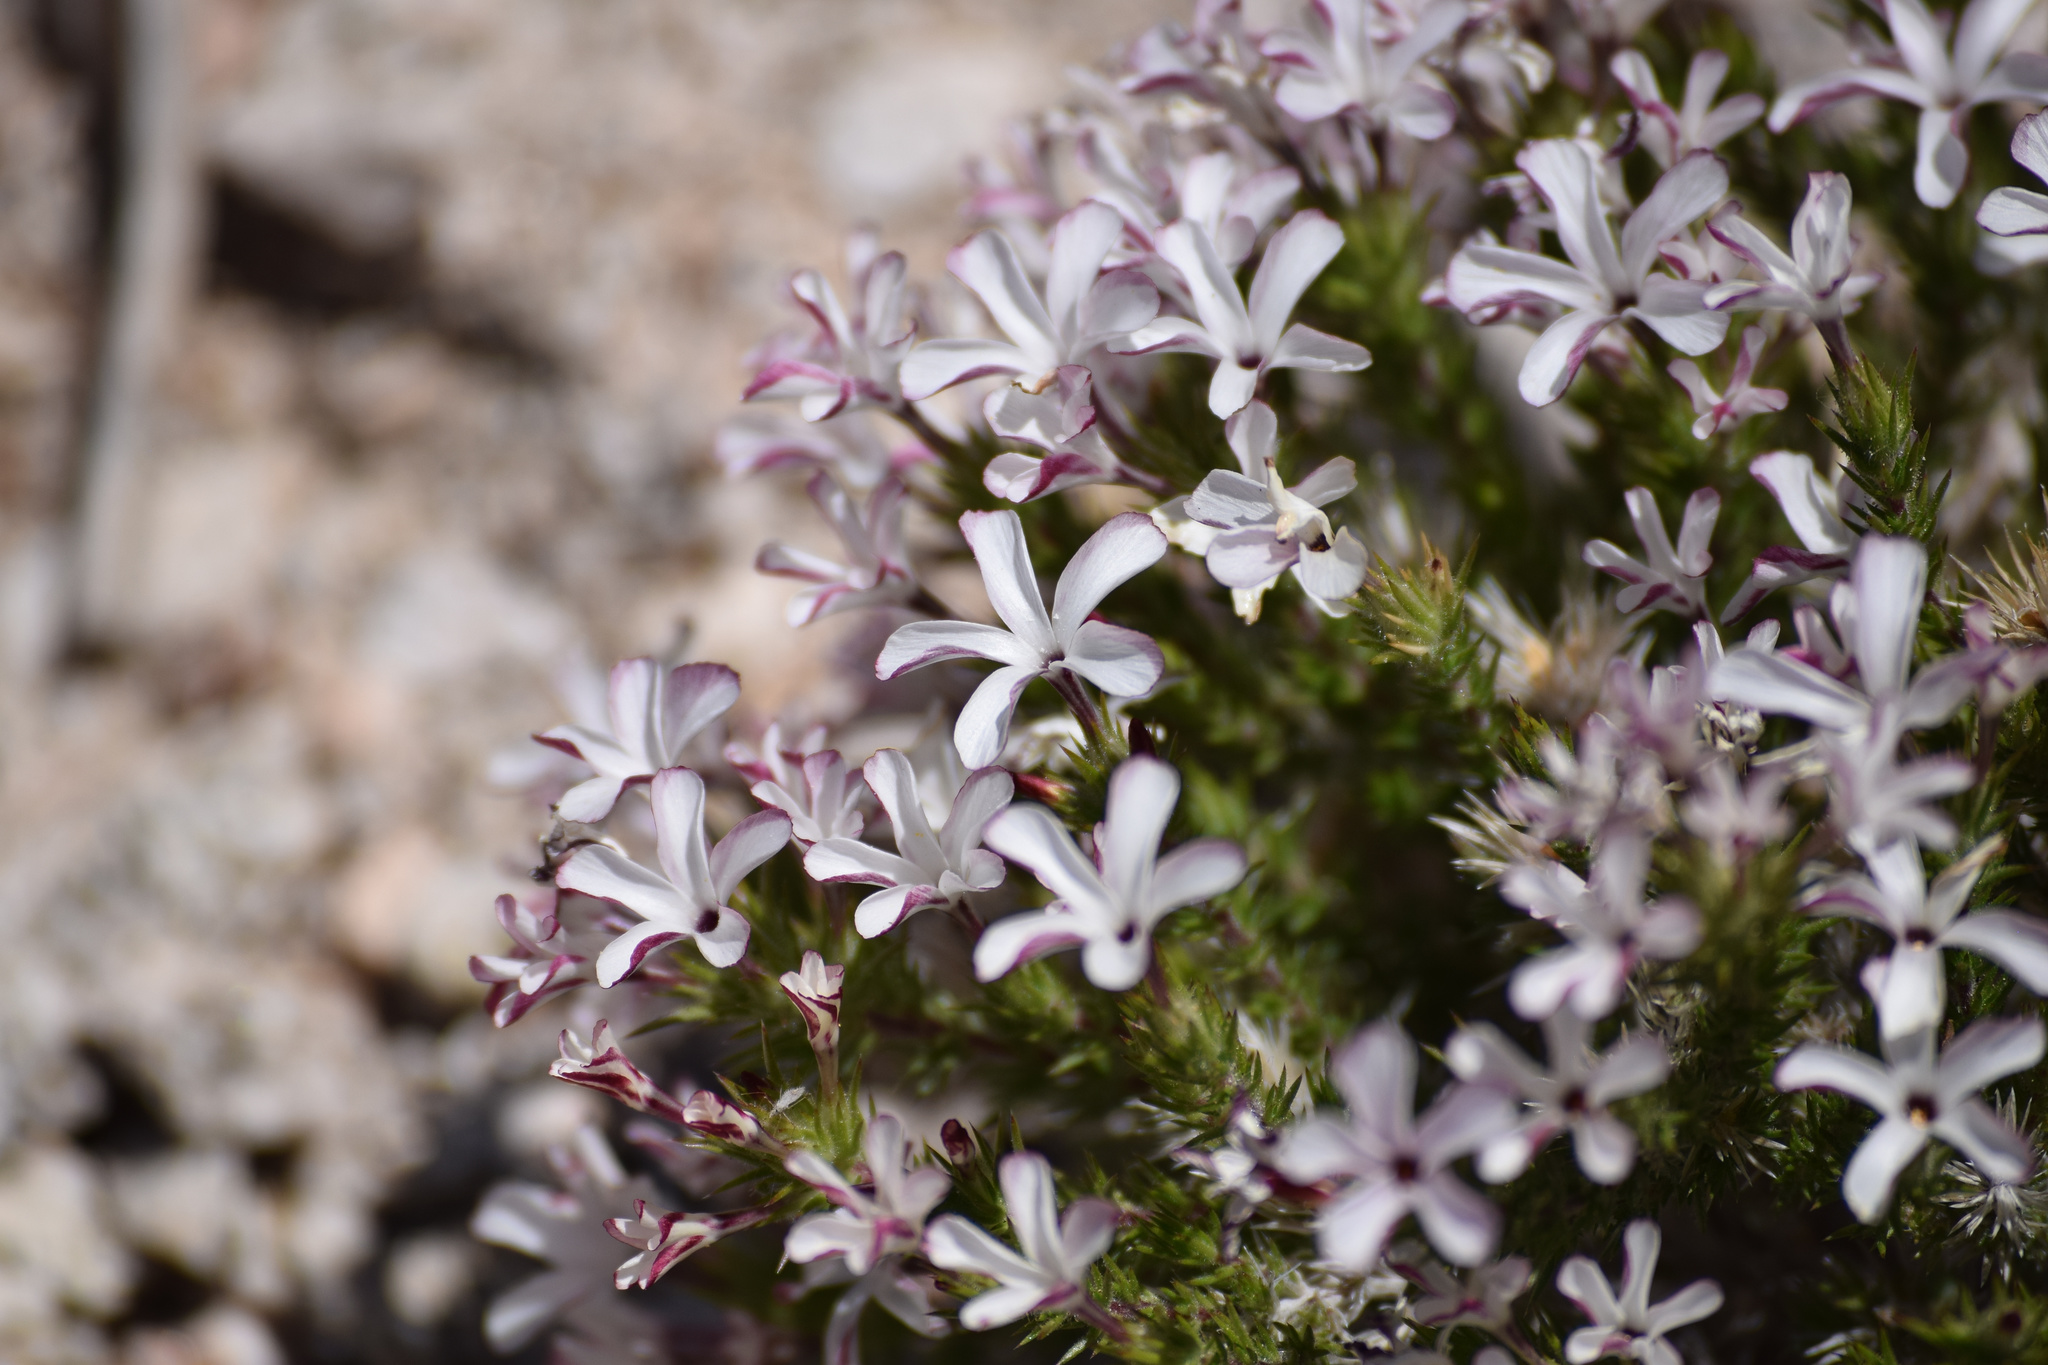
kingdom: Plantae
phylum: Tracheophyta
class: Magnoliopsida
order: Ericales
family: Polemoniaceae
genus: Linanthus
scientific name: Linanthus pungens
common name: Granite prickly phlox
